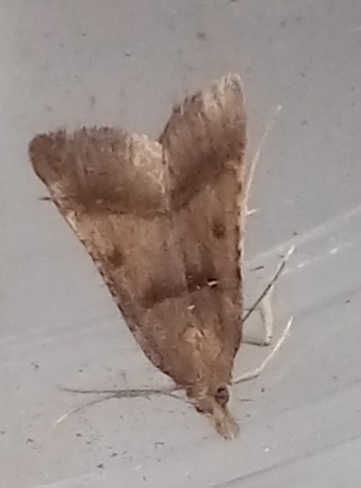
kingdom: Animalia
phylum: Arthropoda
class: Insecta
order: Lepidoptera
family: Pyralidae
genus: Stemmatophora
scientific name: Stemmatophora brunnealis
